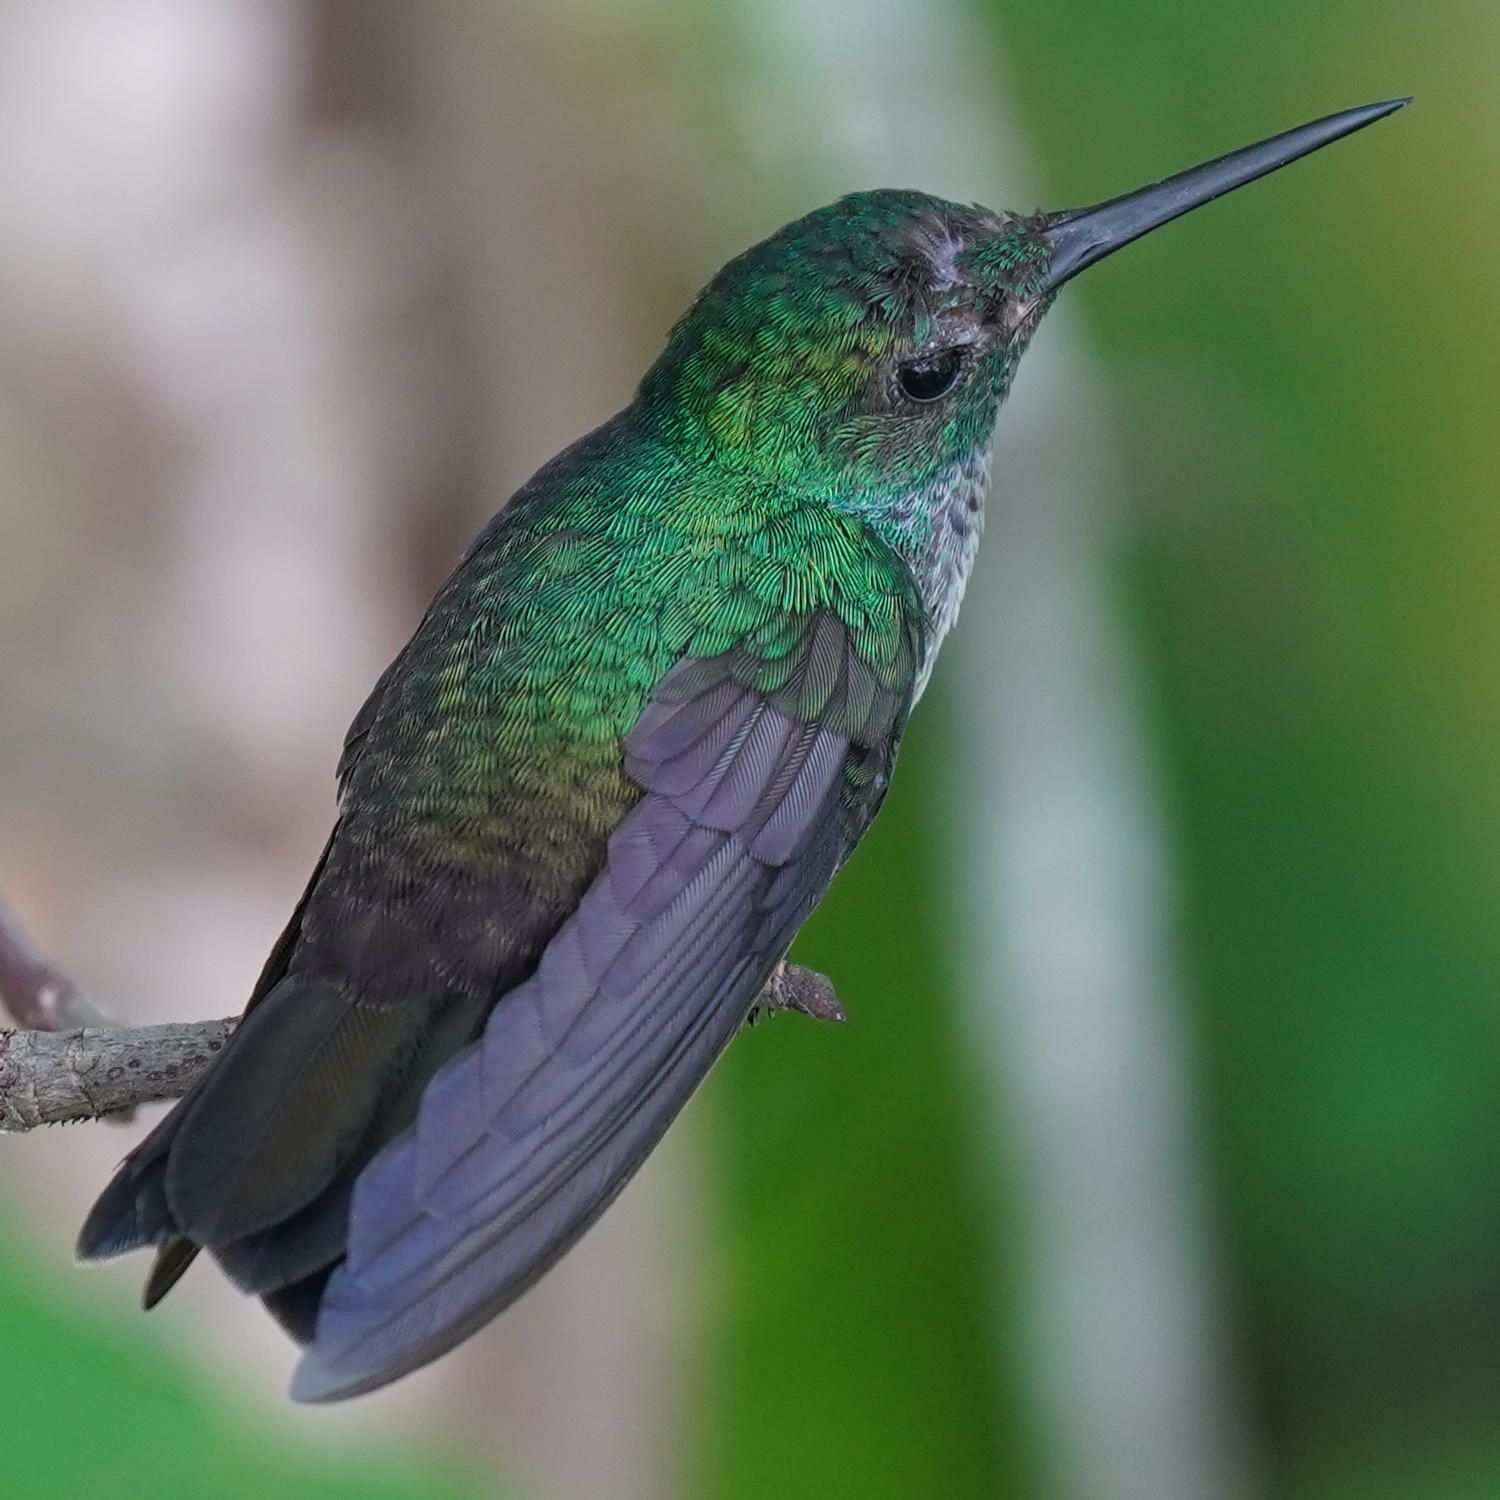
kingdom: Animalia
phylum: Chordata
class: Aves
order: Apodiformes
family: Trochilidae
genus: Polyerata
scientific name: Polyerata amabilis
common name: Blue-chested hummingbird
